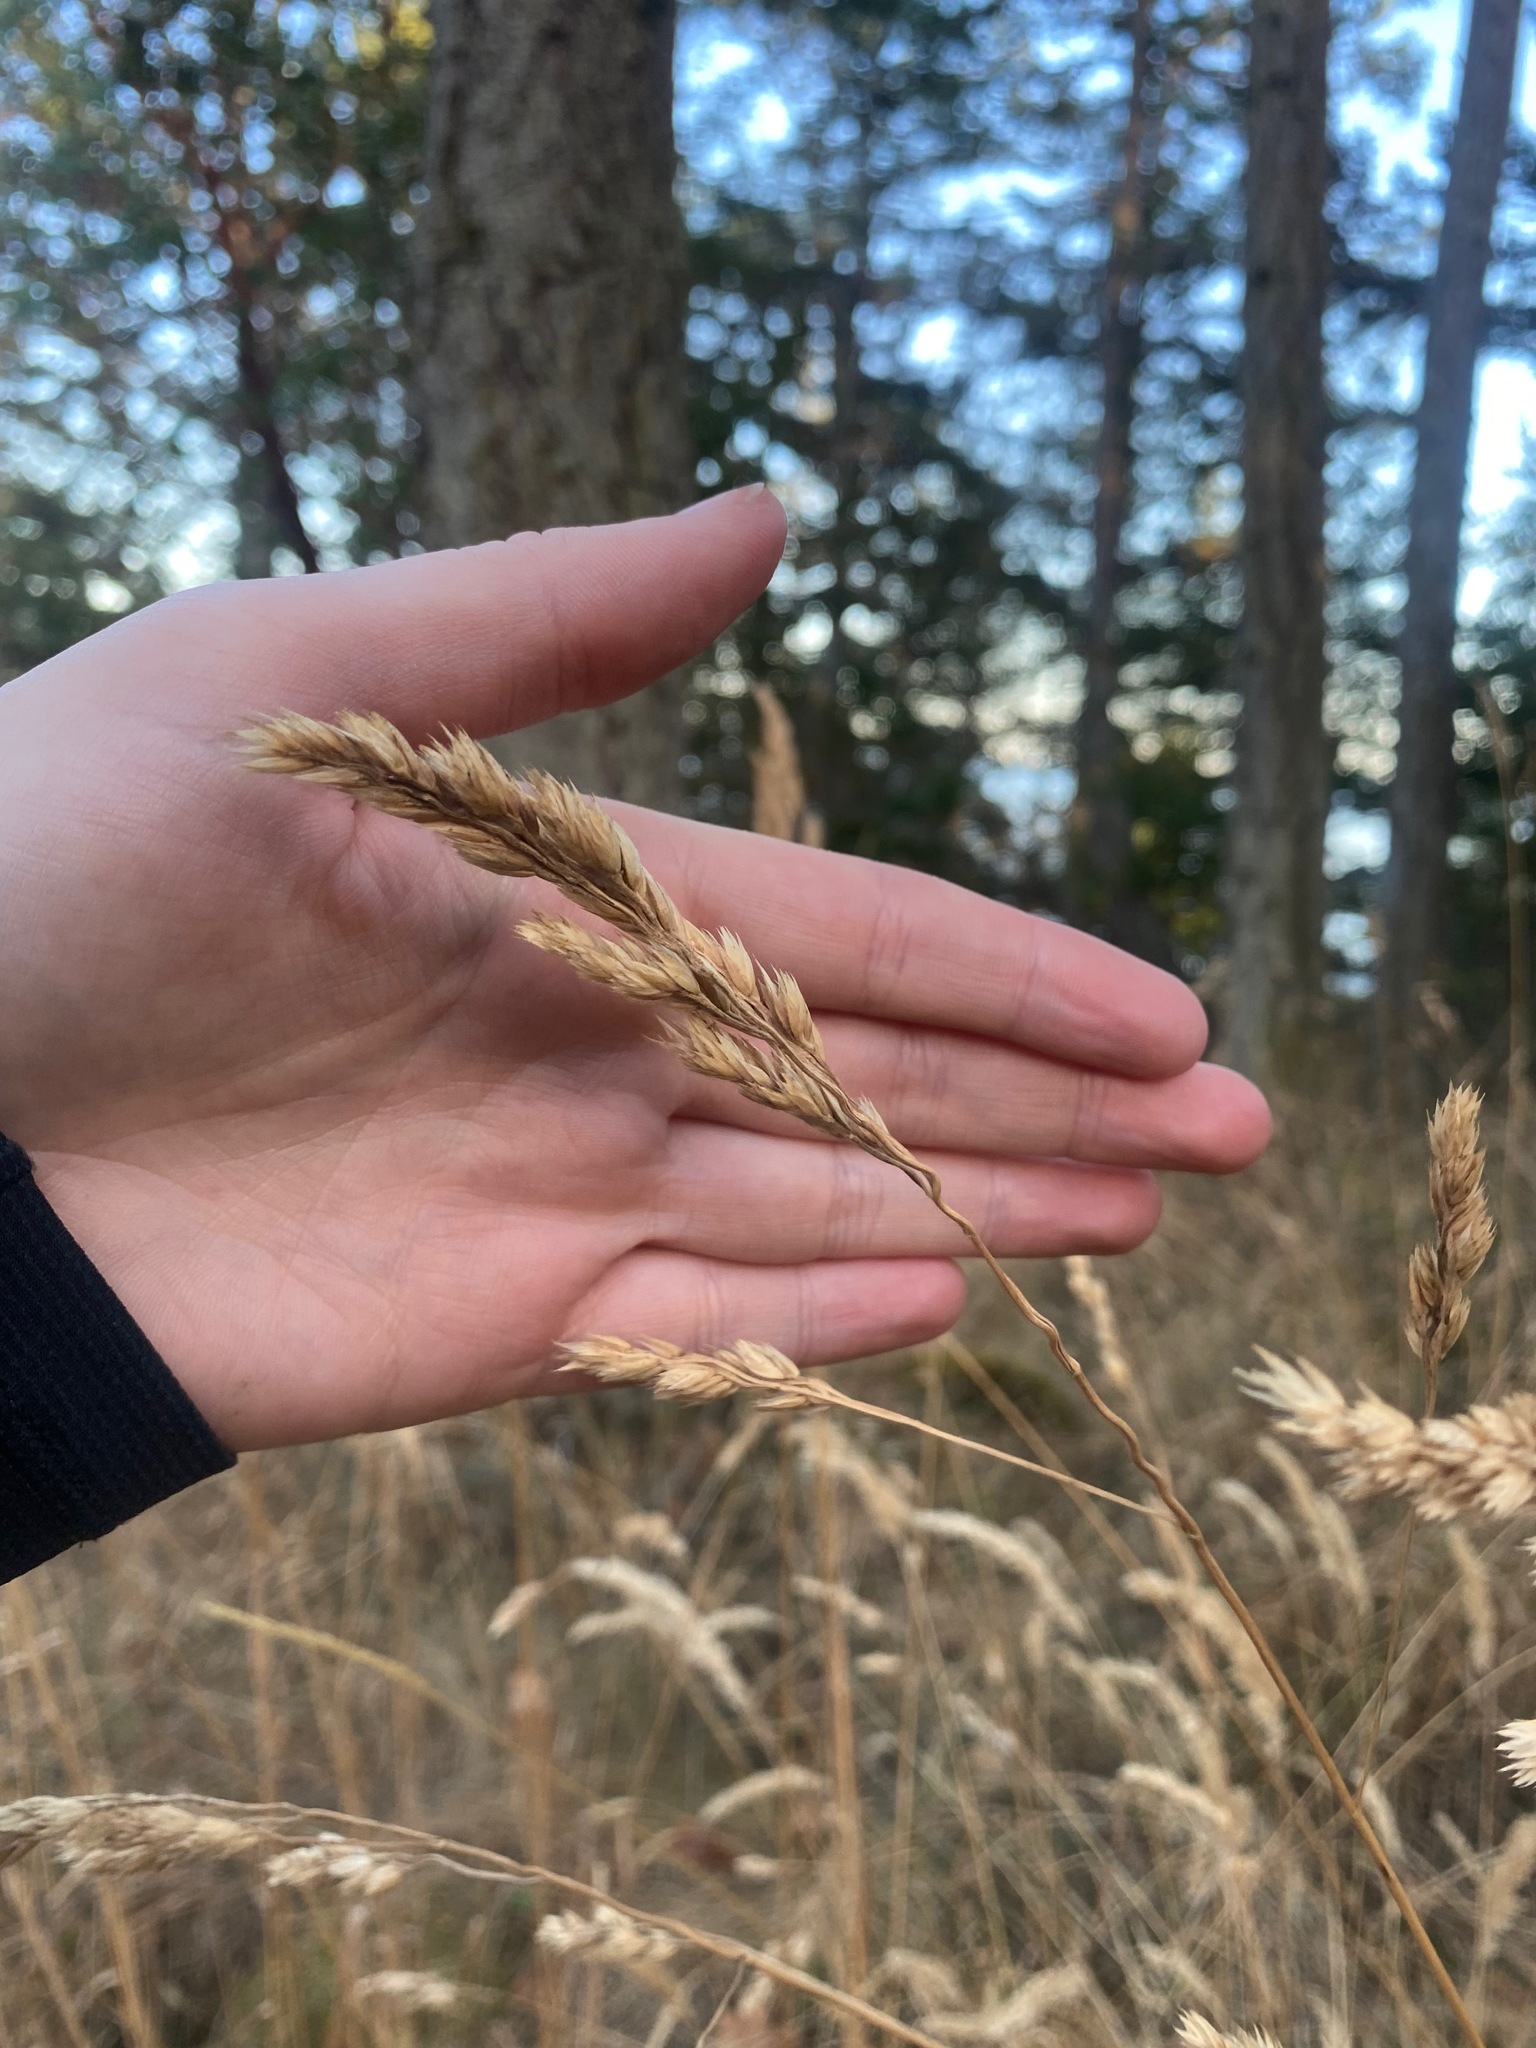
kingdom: Plantae
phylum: Tracheophyta
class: Liliopsida
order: Poales
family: Poaceae
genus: Dactylis
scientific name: Dactylis glomerata
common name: Orchardgrass
